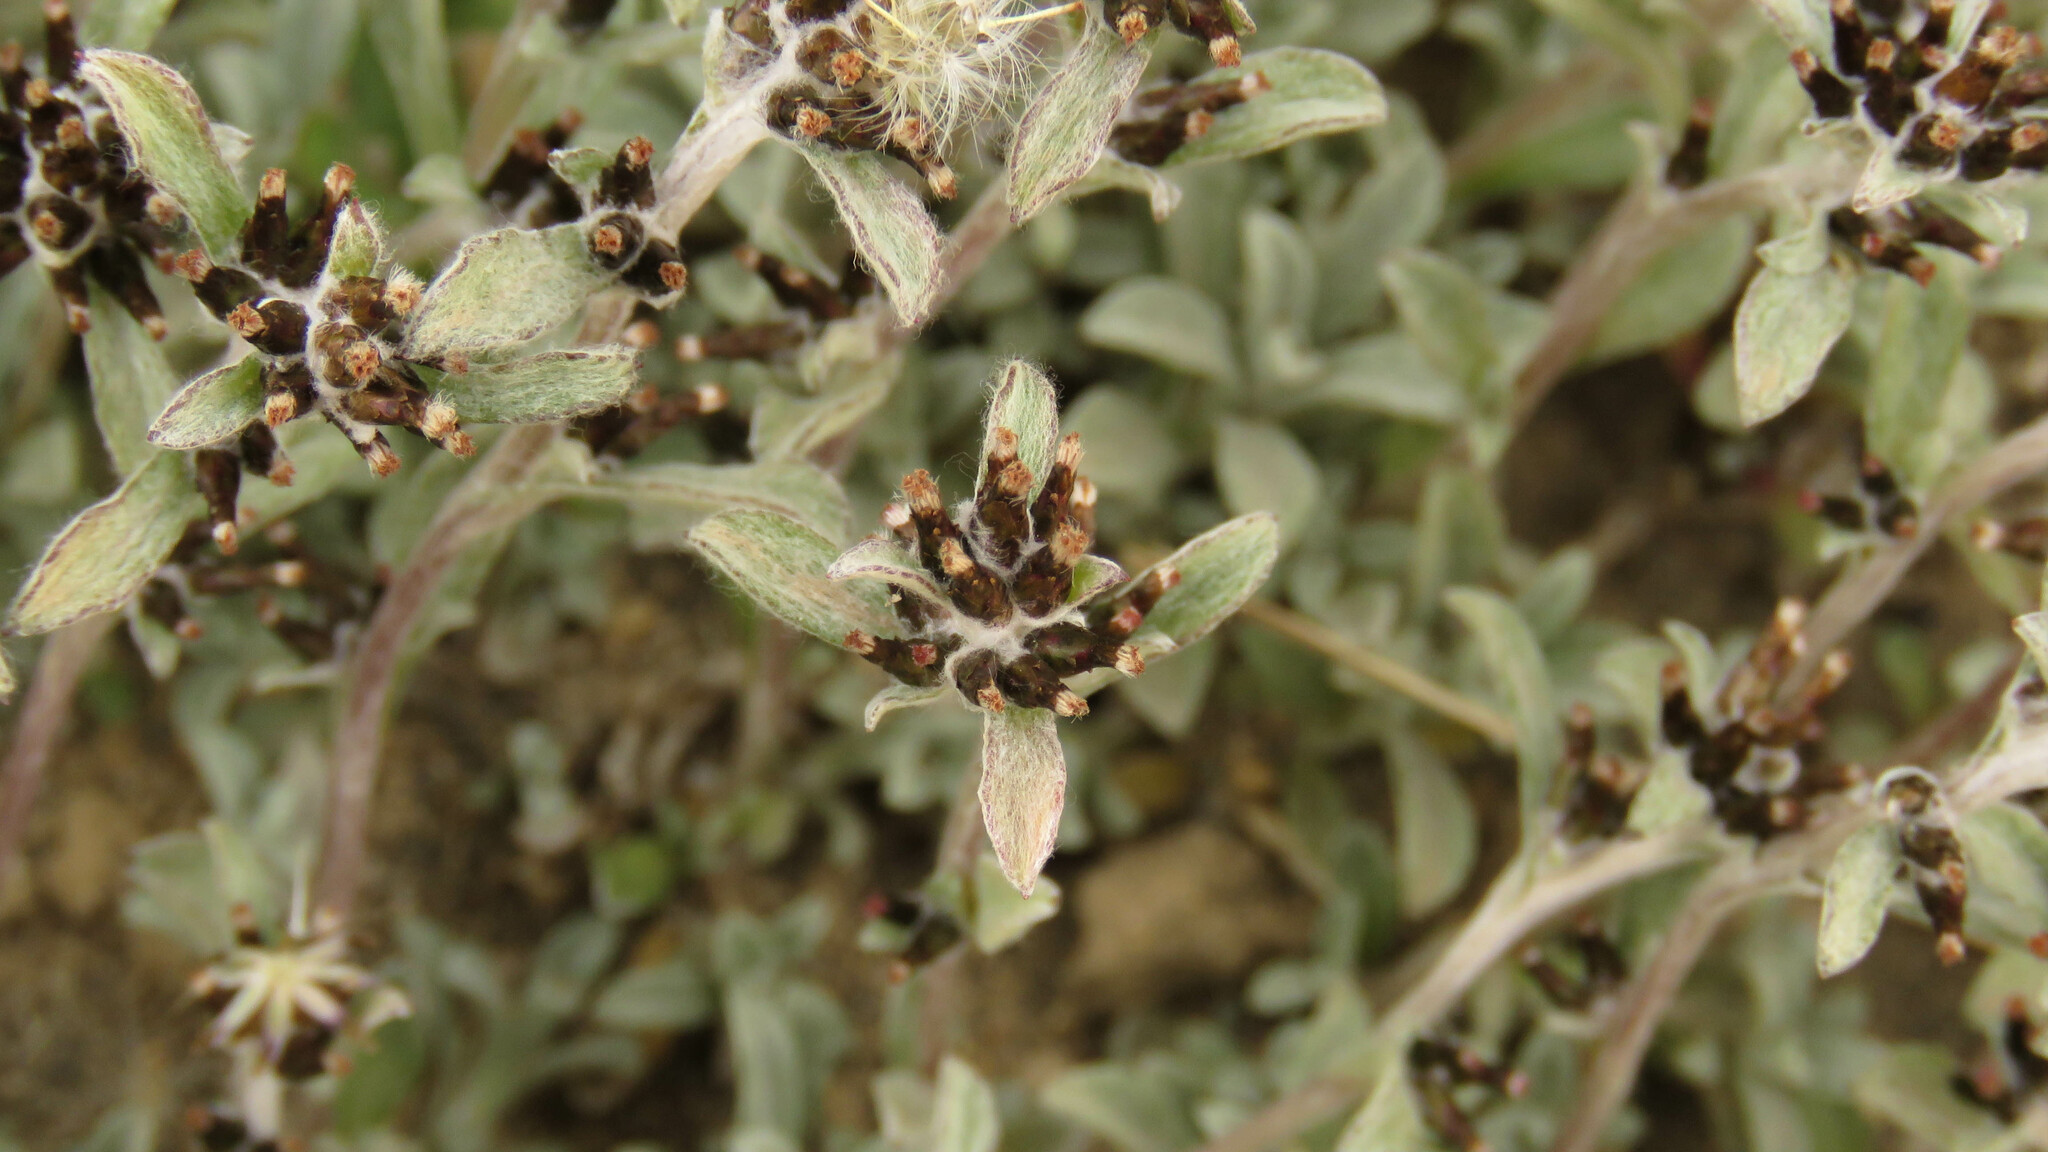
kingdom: Plantae
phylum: Tracheophyta
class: Magnoliopsida
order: Asterales
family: Asteraceae
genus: Gamochaeta
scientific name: Gamochaeta alpina
